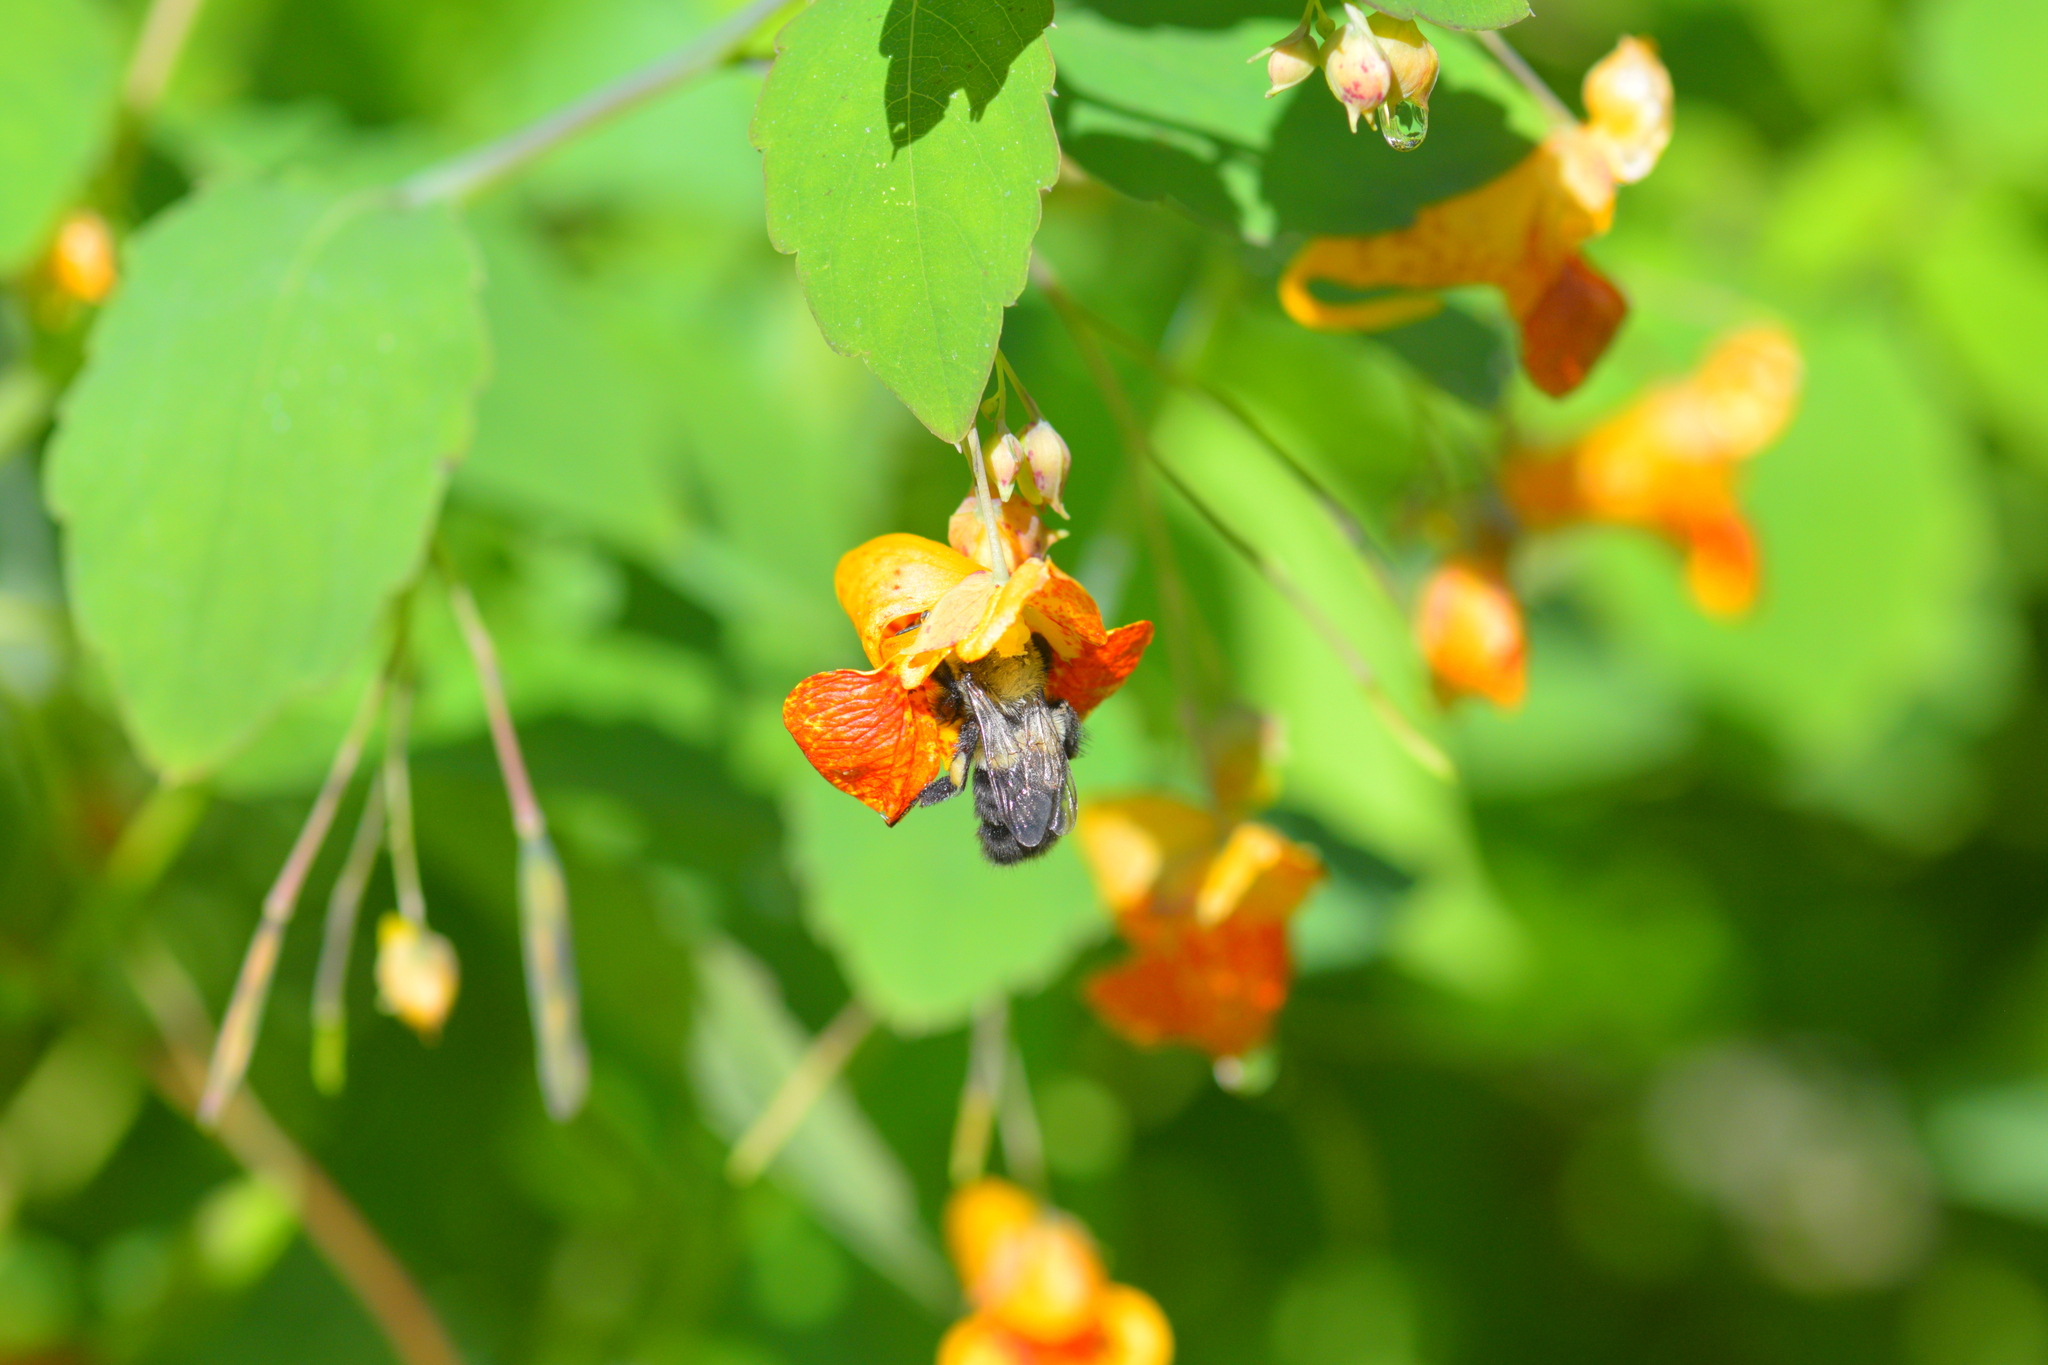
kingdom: Animalia
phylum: Arthropoda
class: Insecta
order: Hymenoptera
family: Apidae
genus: Bombus
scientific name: Bombus impatiens
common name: Common eastern bumble bee
